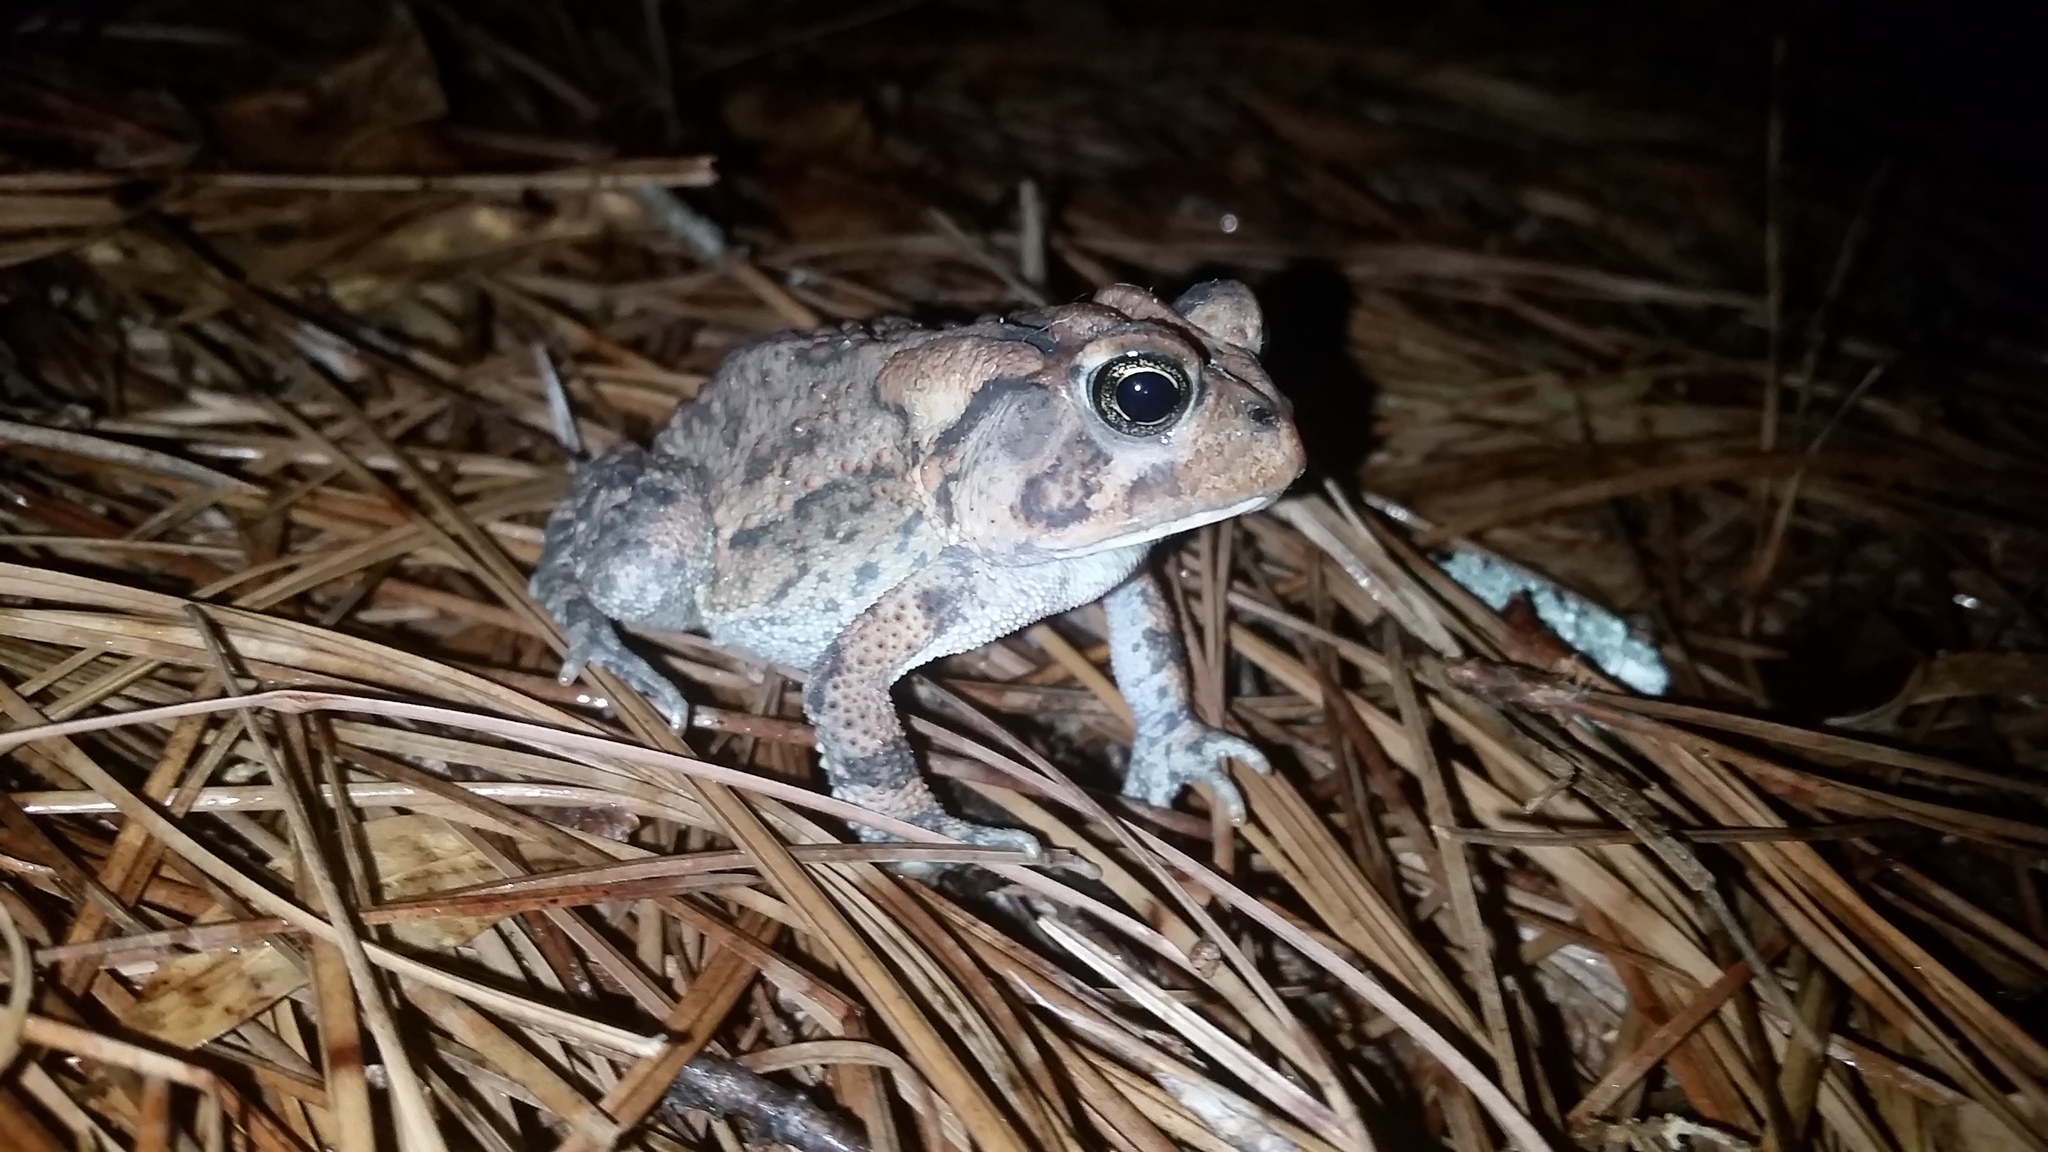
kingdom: Animalia
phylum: Chordata
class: Amphibia
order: Anura
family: Bufonidae
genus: Anaxyrus
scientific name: Anaxyrus terrestris
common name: Southern toad
